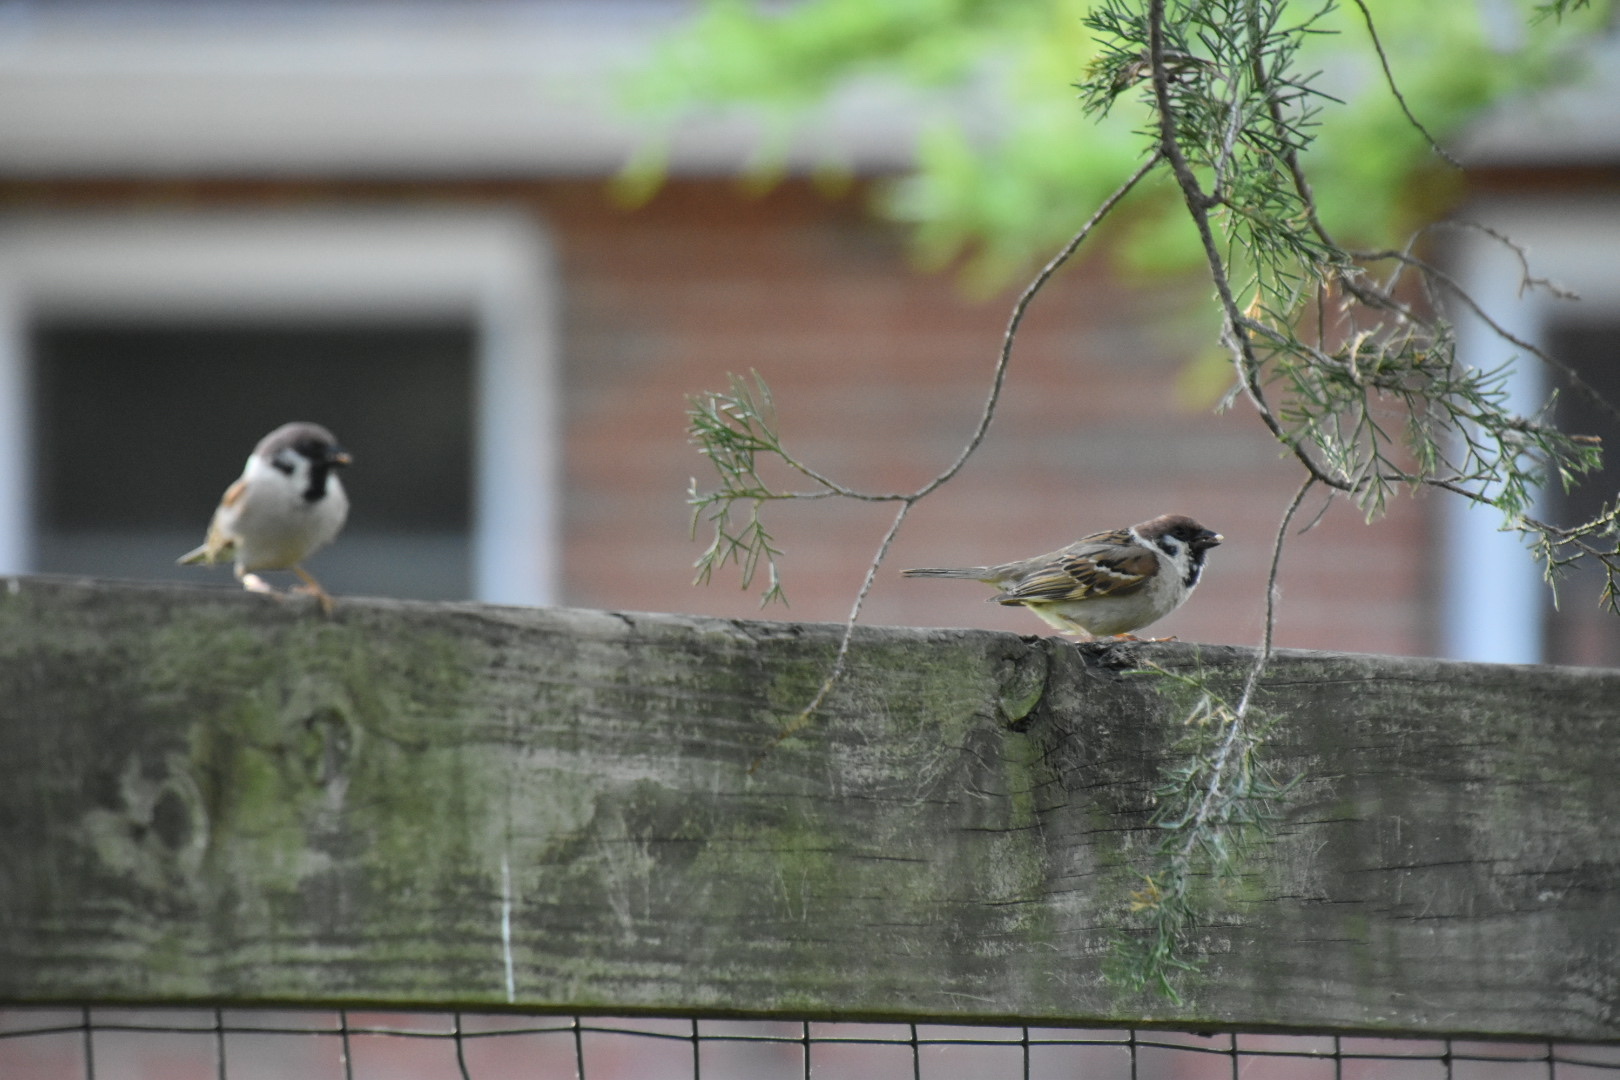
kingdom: Animalia
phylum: Chordata
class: Aves
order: Passeriformes
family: Passeridae
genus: Passer
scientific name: Passer montanus
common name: Eurasian tree sparrow
